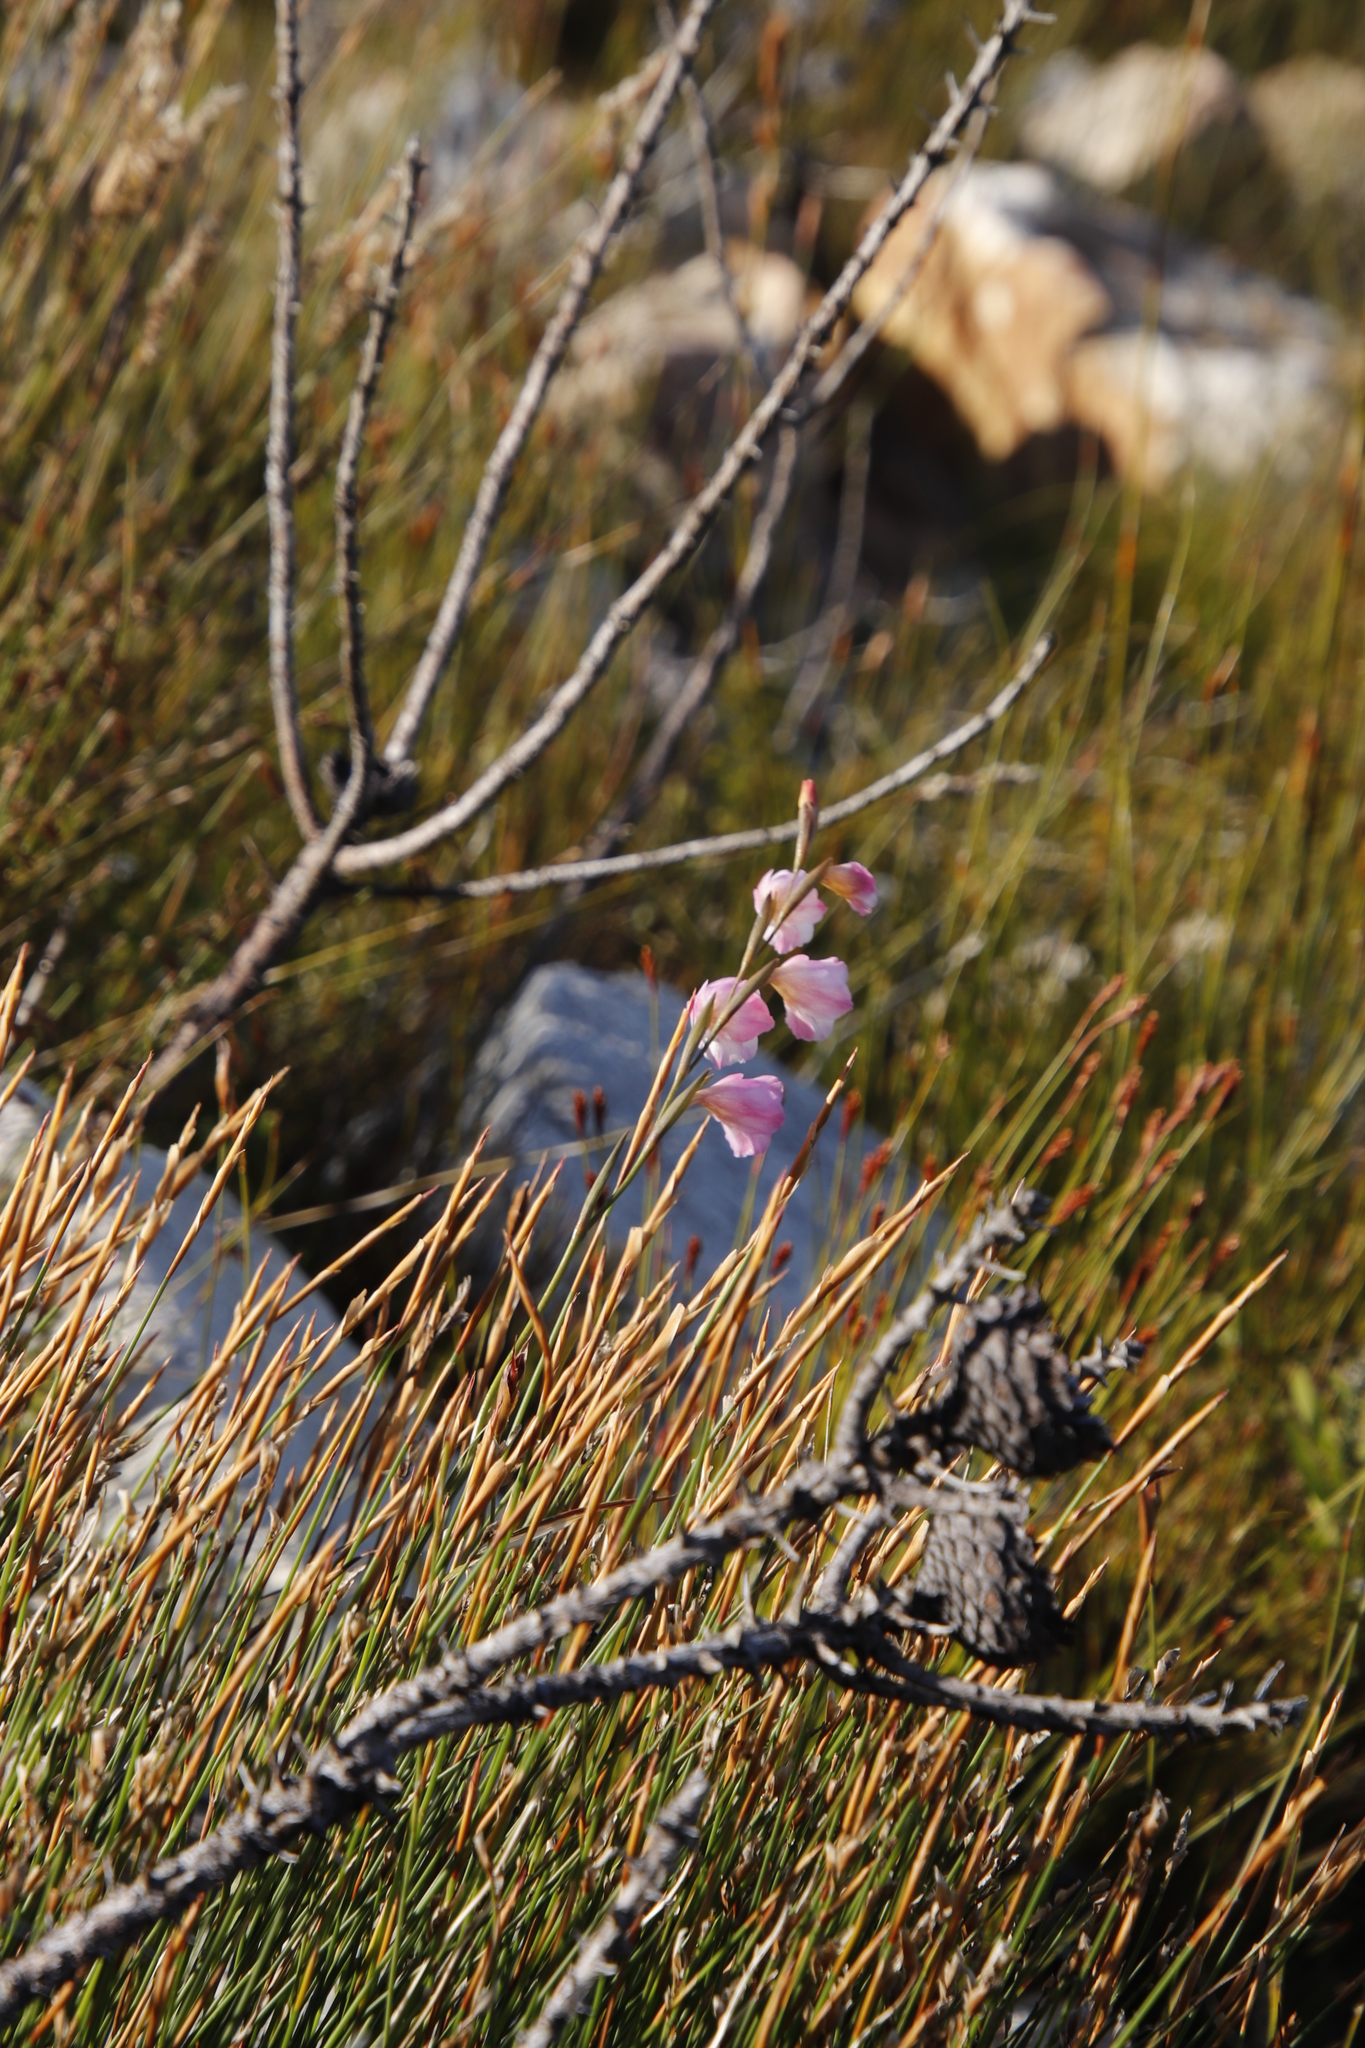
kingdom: Plantae
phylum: Tracheophyta
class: Liliopsida
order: Asparagales
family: Iridaceae
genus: Gladiolus
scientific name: Gladiolus hirsutus
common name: Small pink afrikaner
